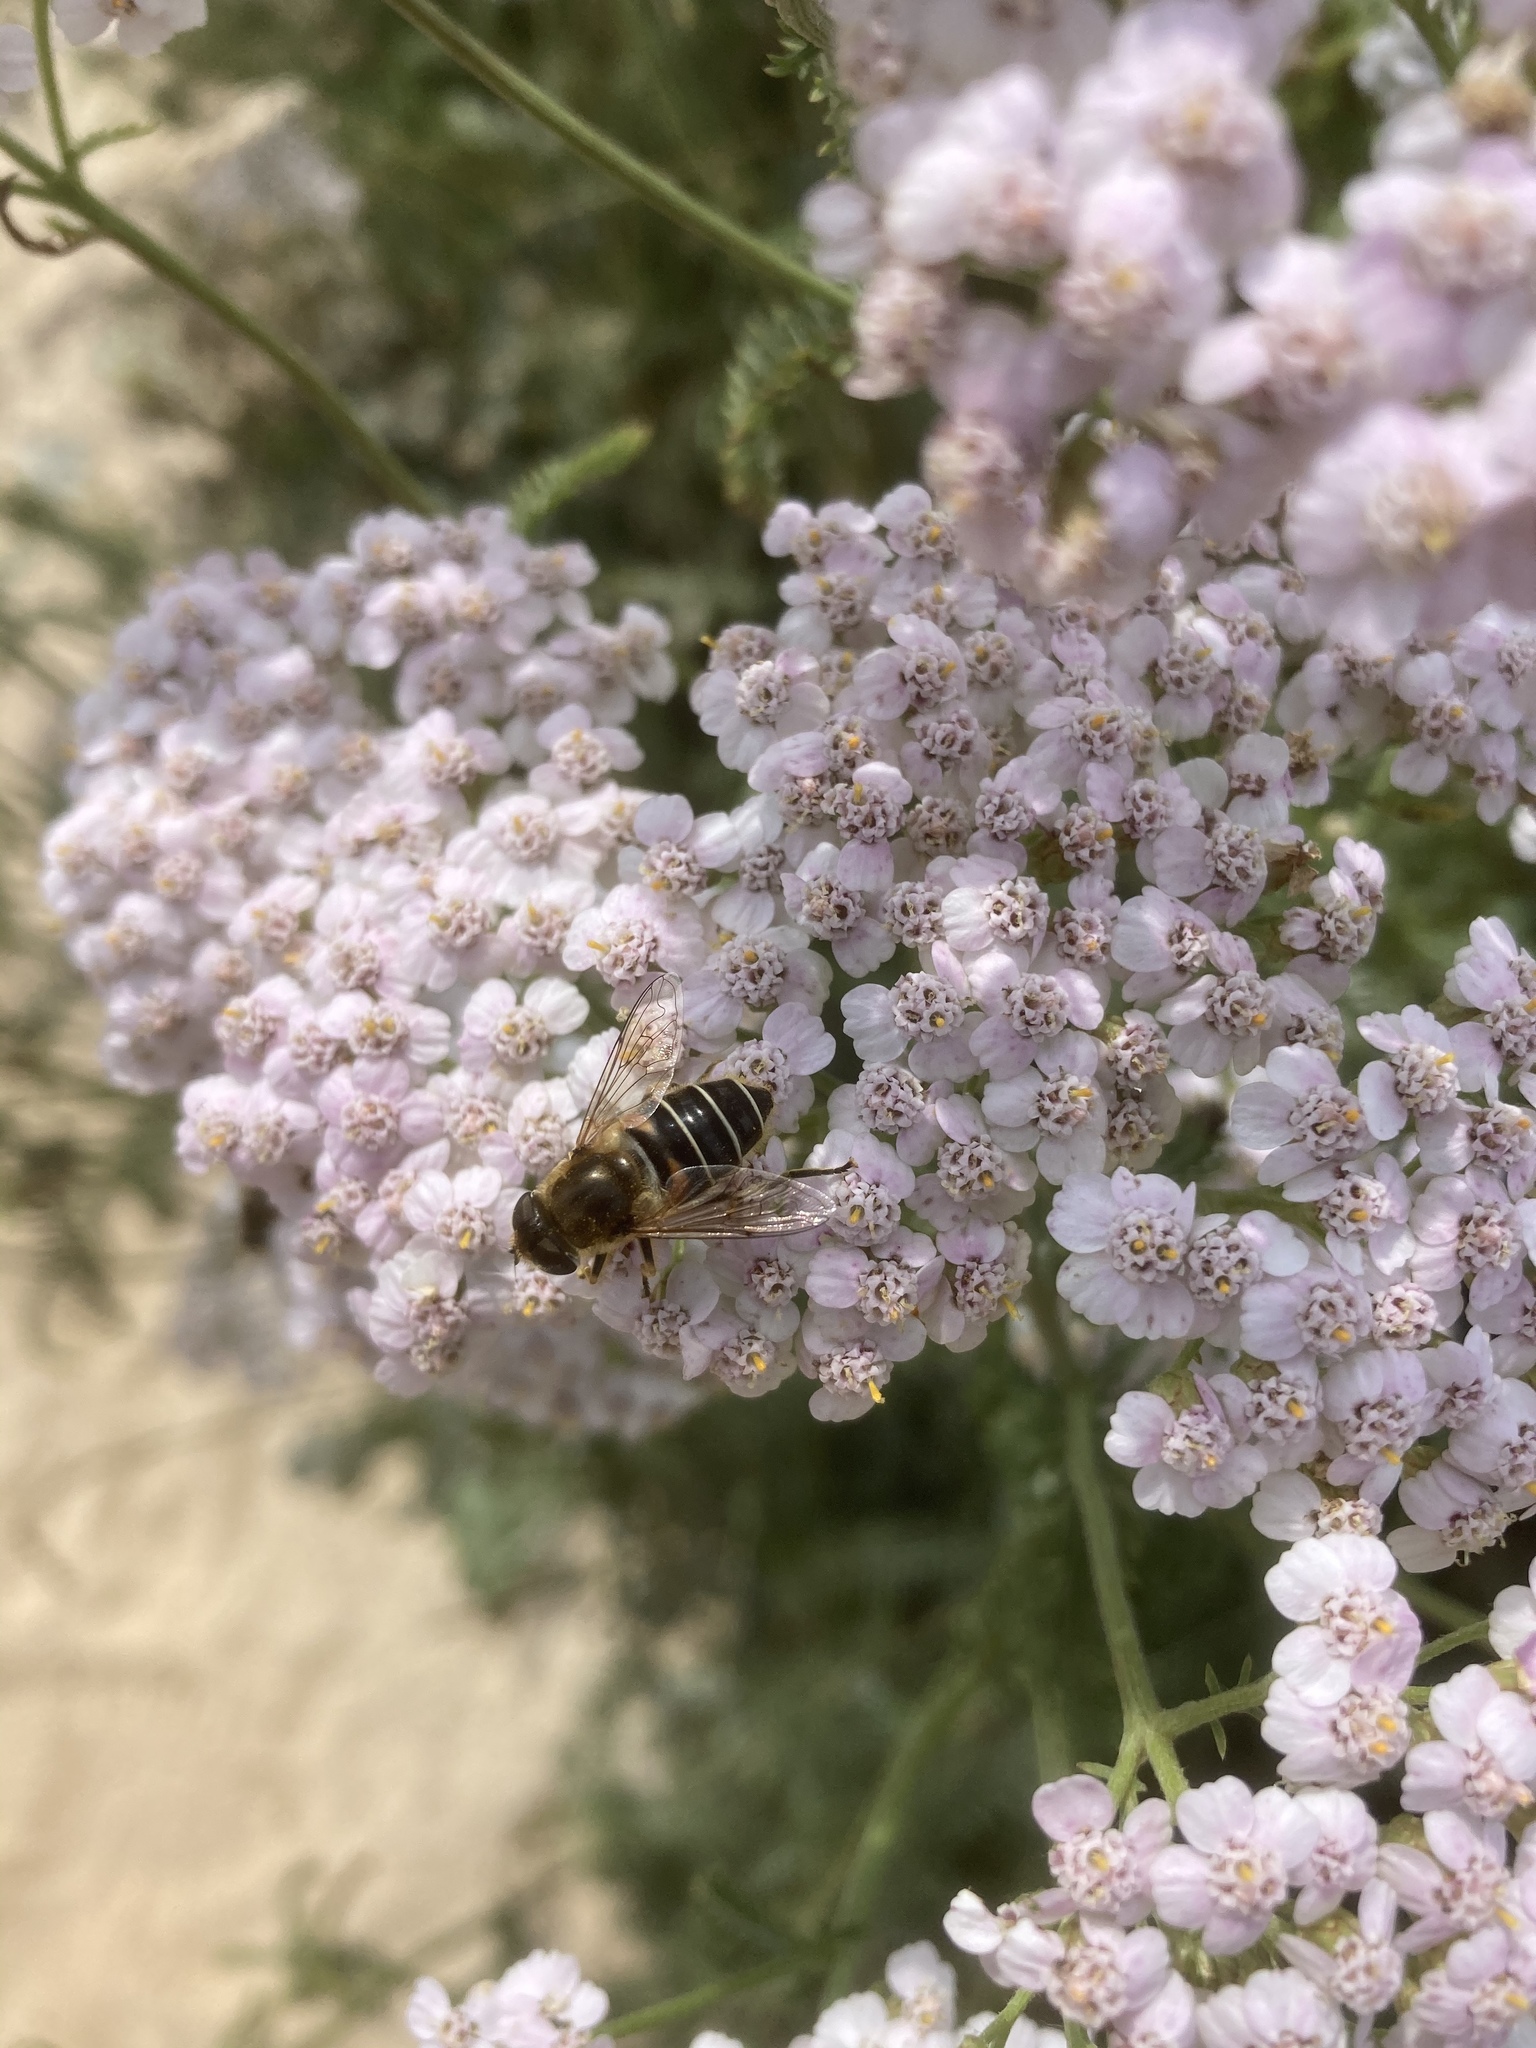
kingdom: Animalia
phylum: Arthropoda
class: Insecta
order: Diptera
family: Syrphidae
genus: Eristalis
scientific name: Eristalis nemorum
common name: Orange-spined drone fly
